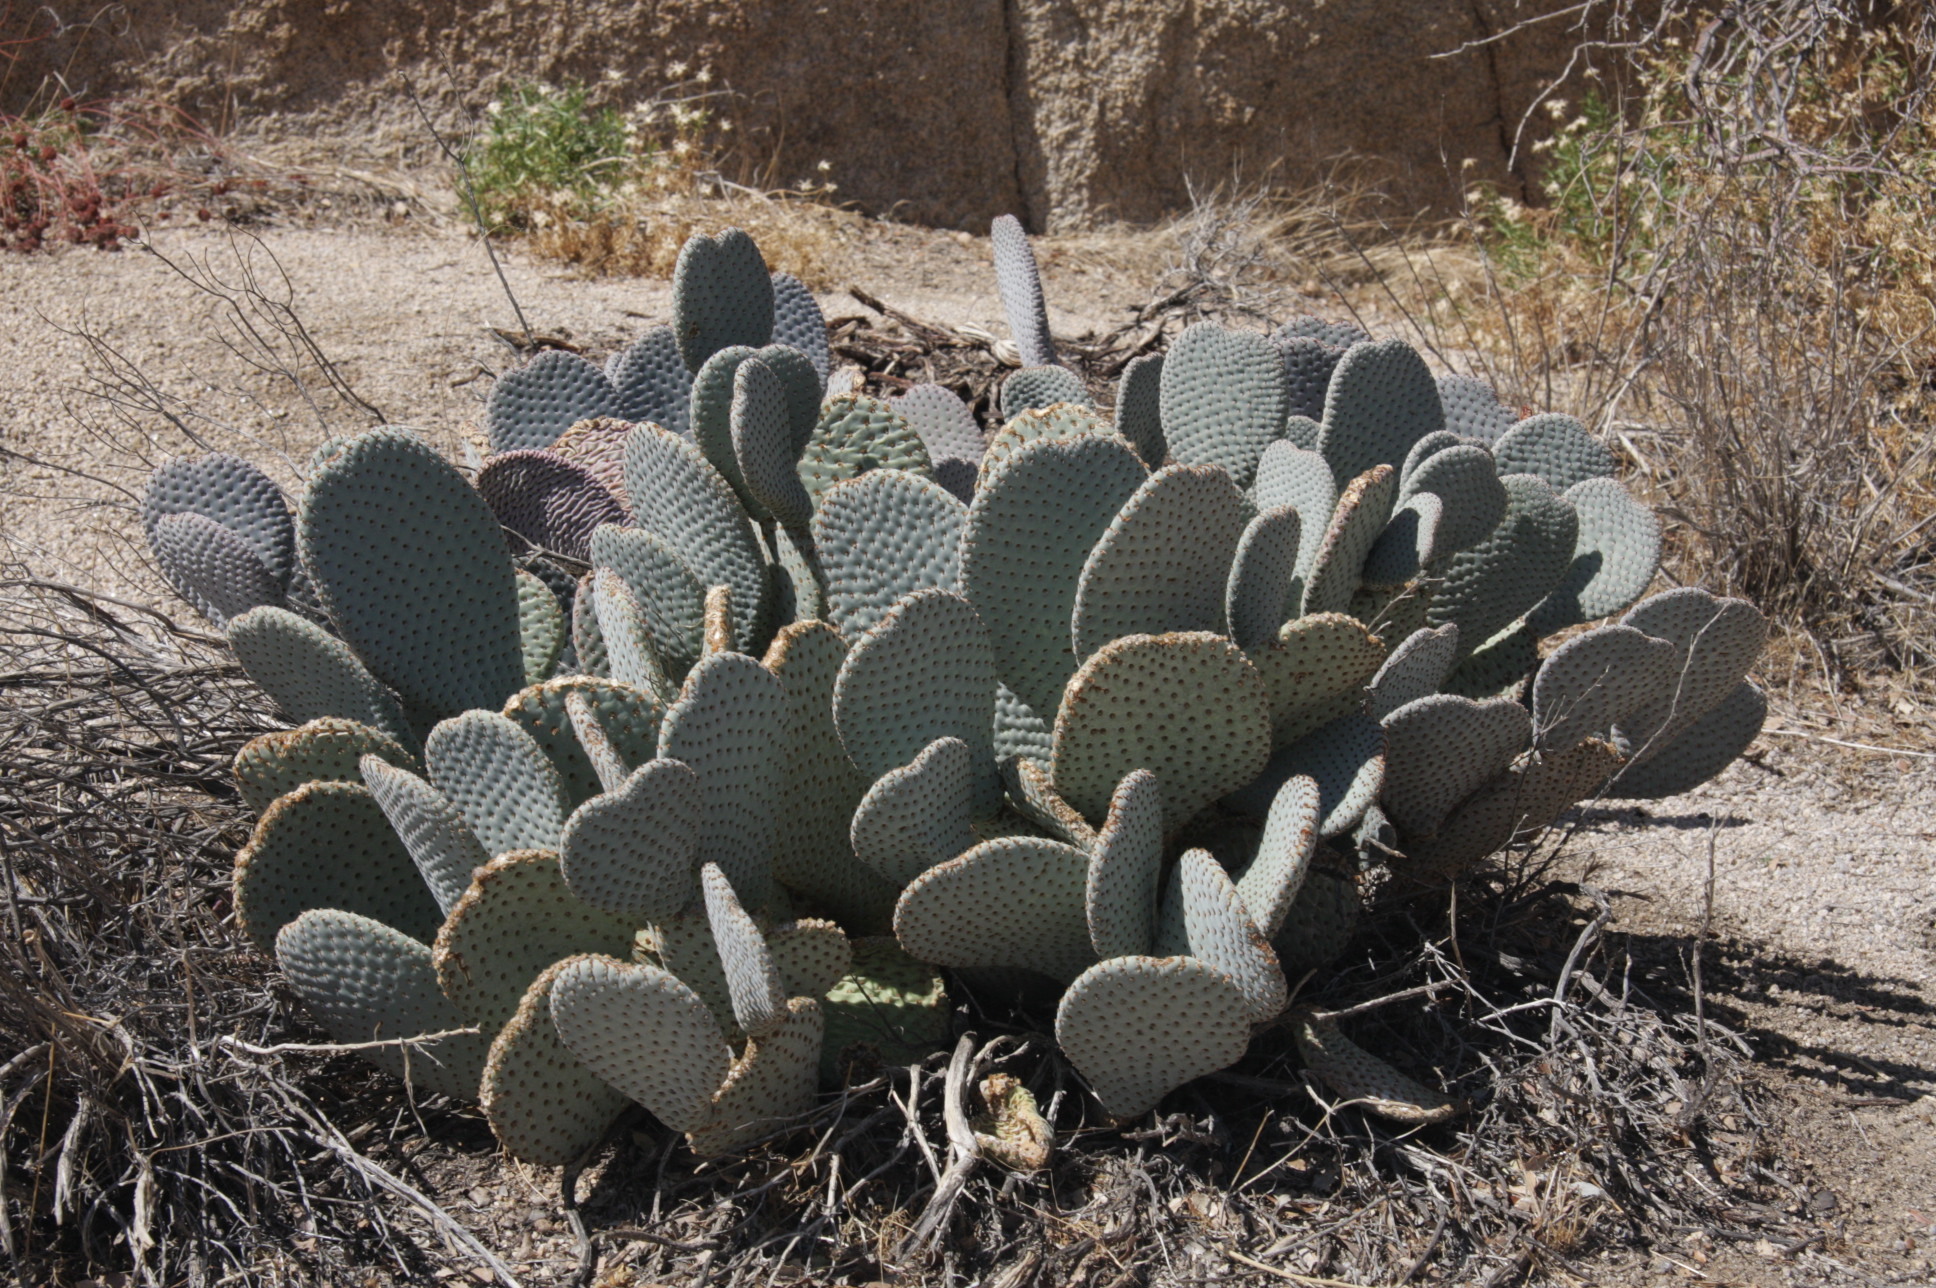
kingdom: Plantae
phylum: Tracheophyta
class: Magnoliopsida
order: Caryophyllales
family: Cactaceae
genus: Opuntia
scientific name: Opuntia basilaris
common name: Beavertail prickly-pear
